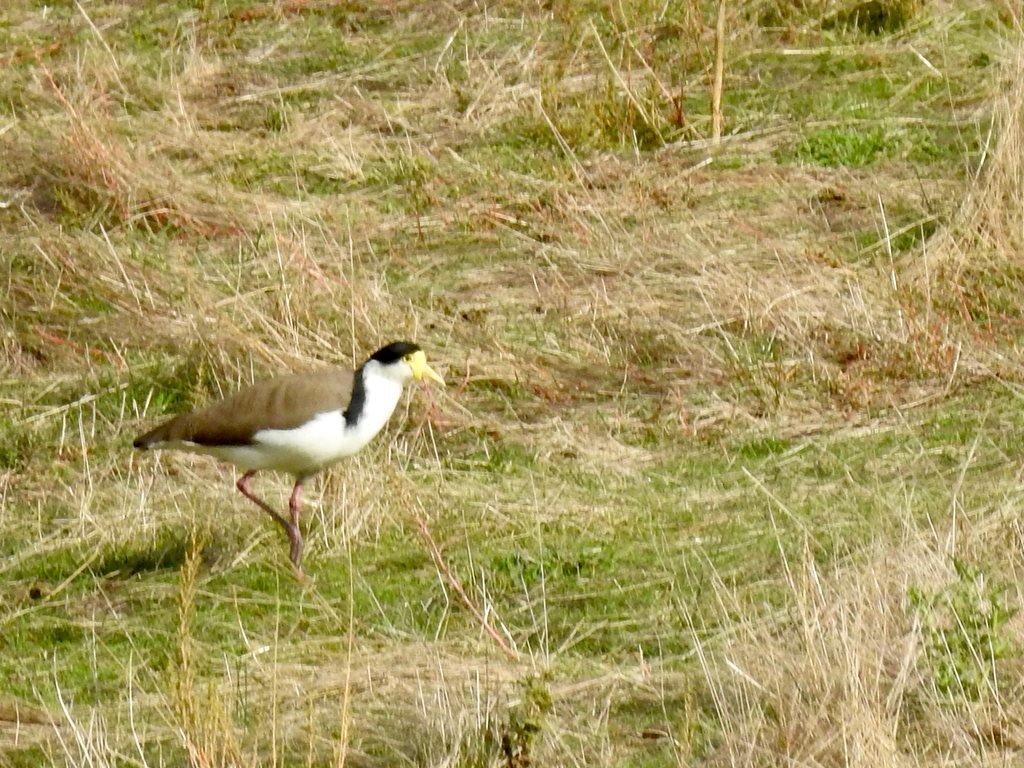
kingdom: Animalia
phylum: Chordata
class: Aves
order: Charadriiformes
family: Charadriidae
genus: Vanellus
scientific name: Vanellus miles
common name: Masked lapwing
